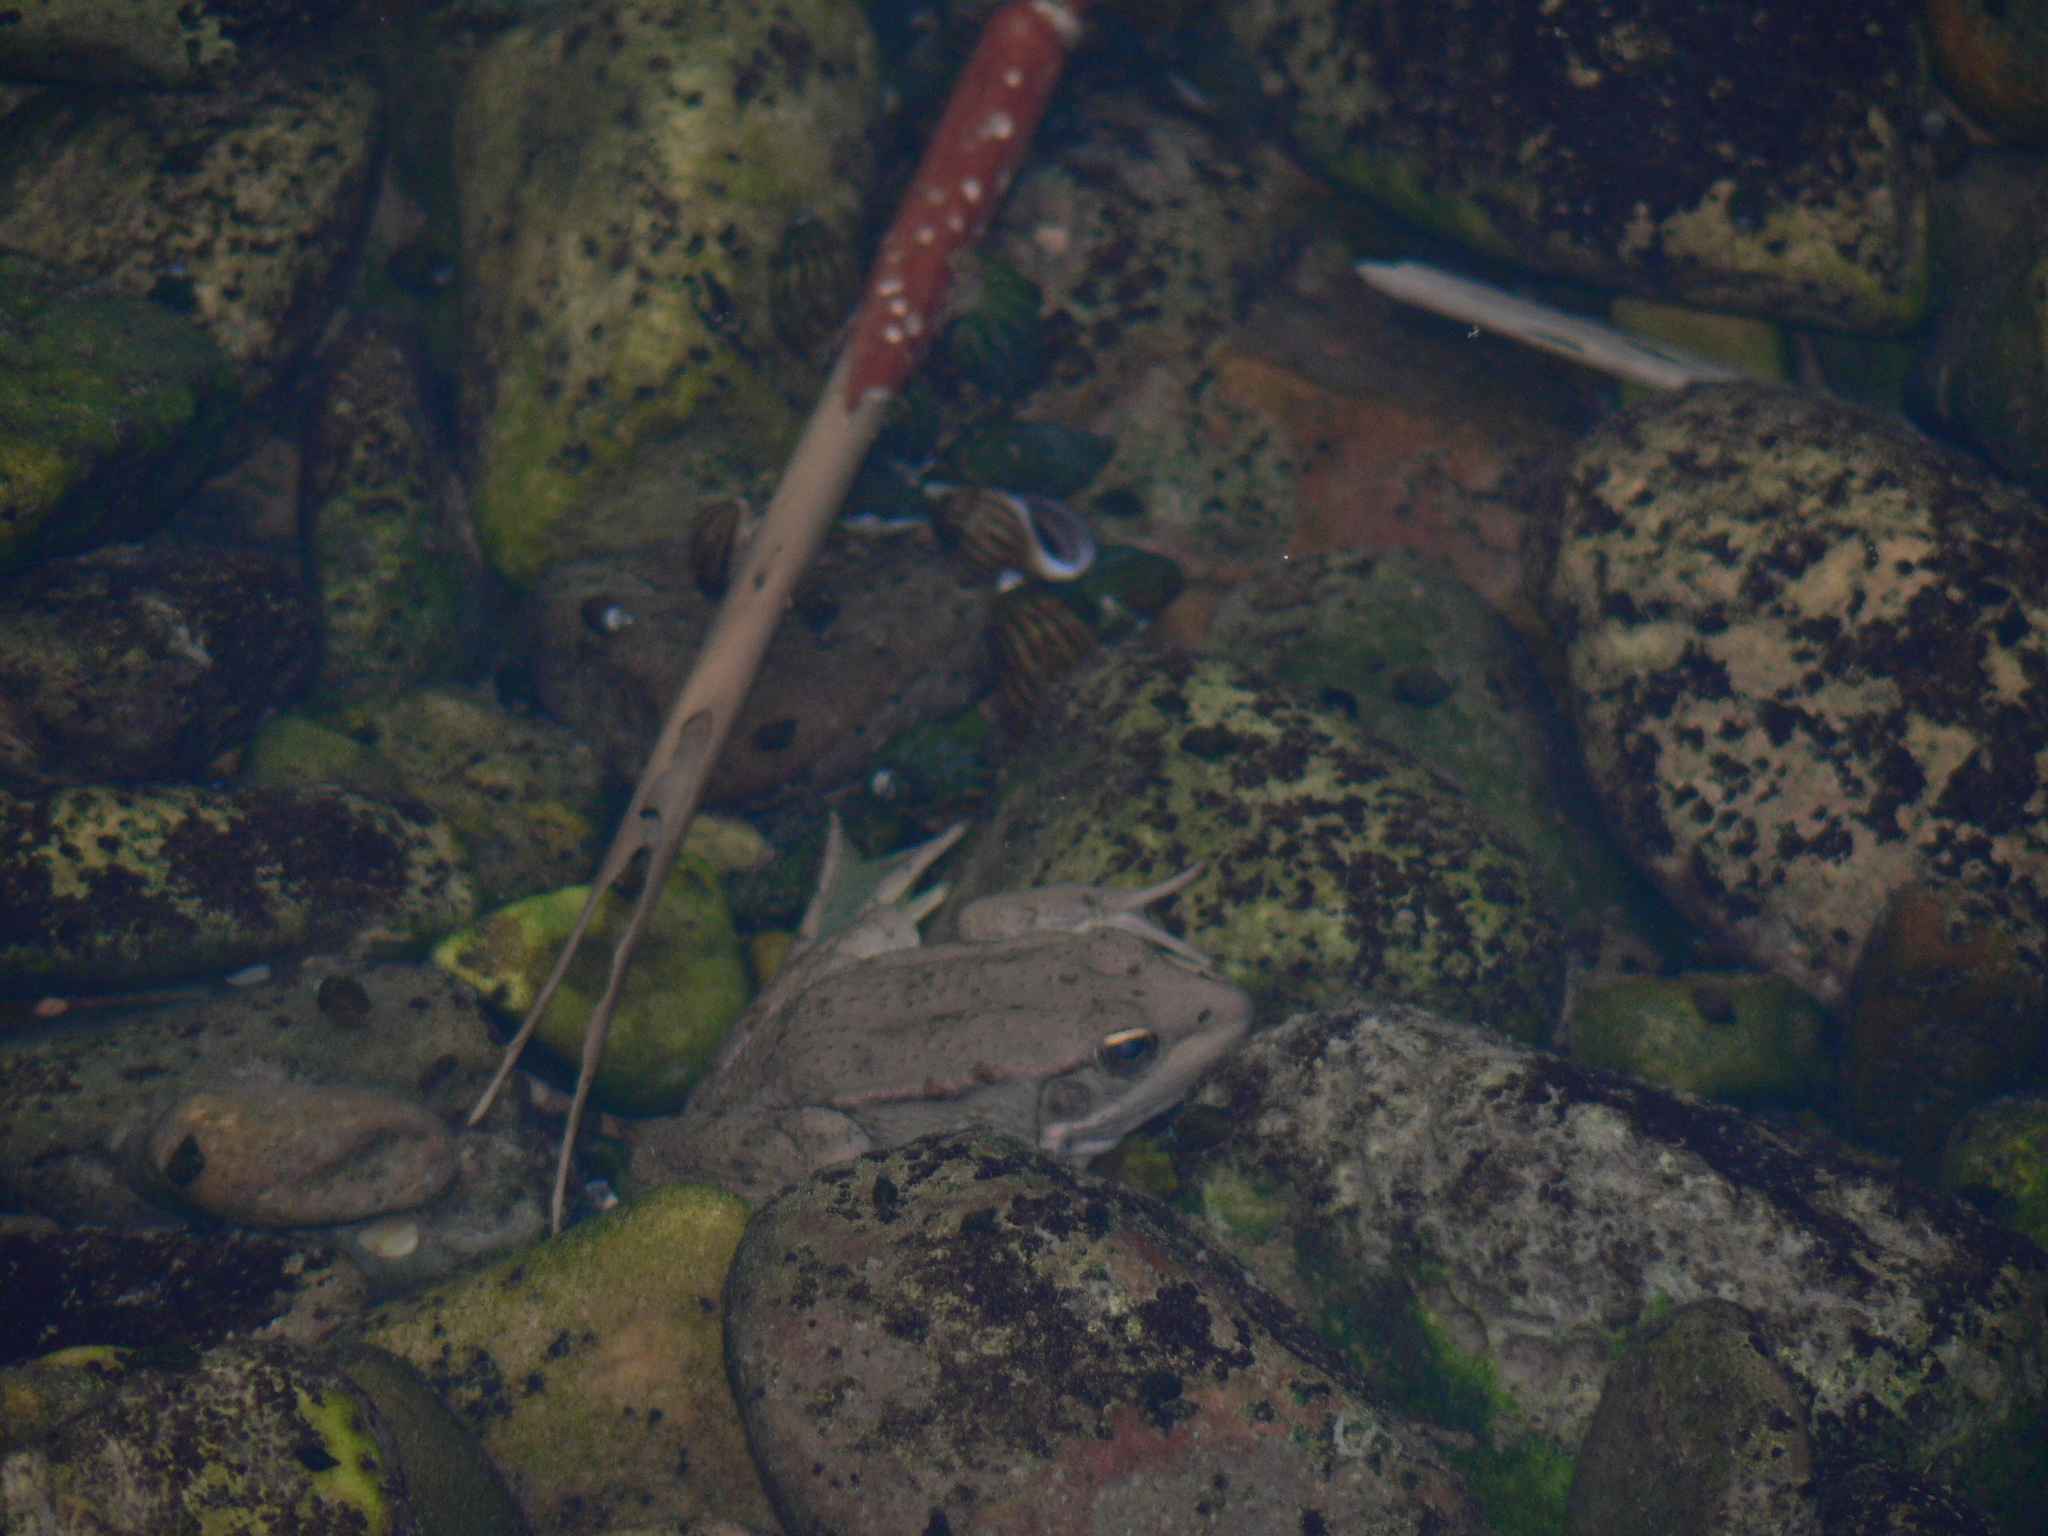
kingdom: Animalia
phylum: Chordata
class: Amphibia
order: Anura
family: Ranidae
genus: Pelophylax
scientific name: Pelophylax saharicus
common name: Sahara frog
